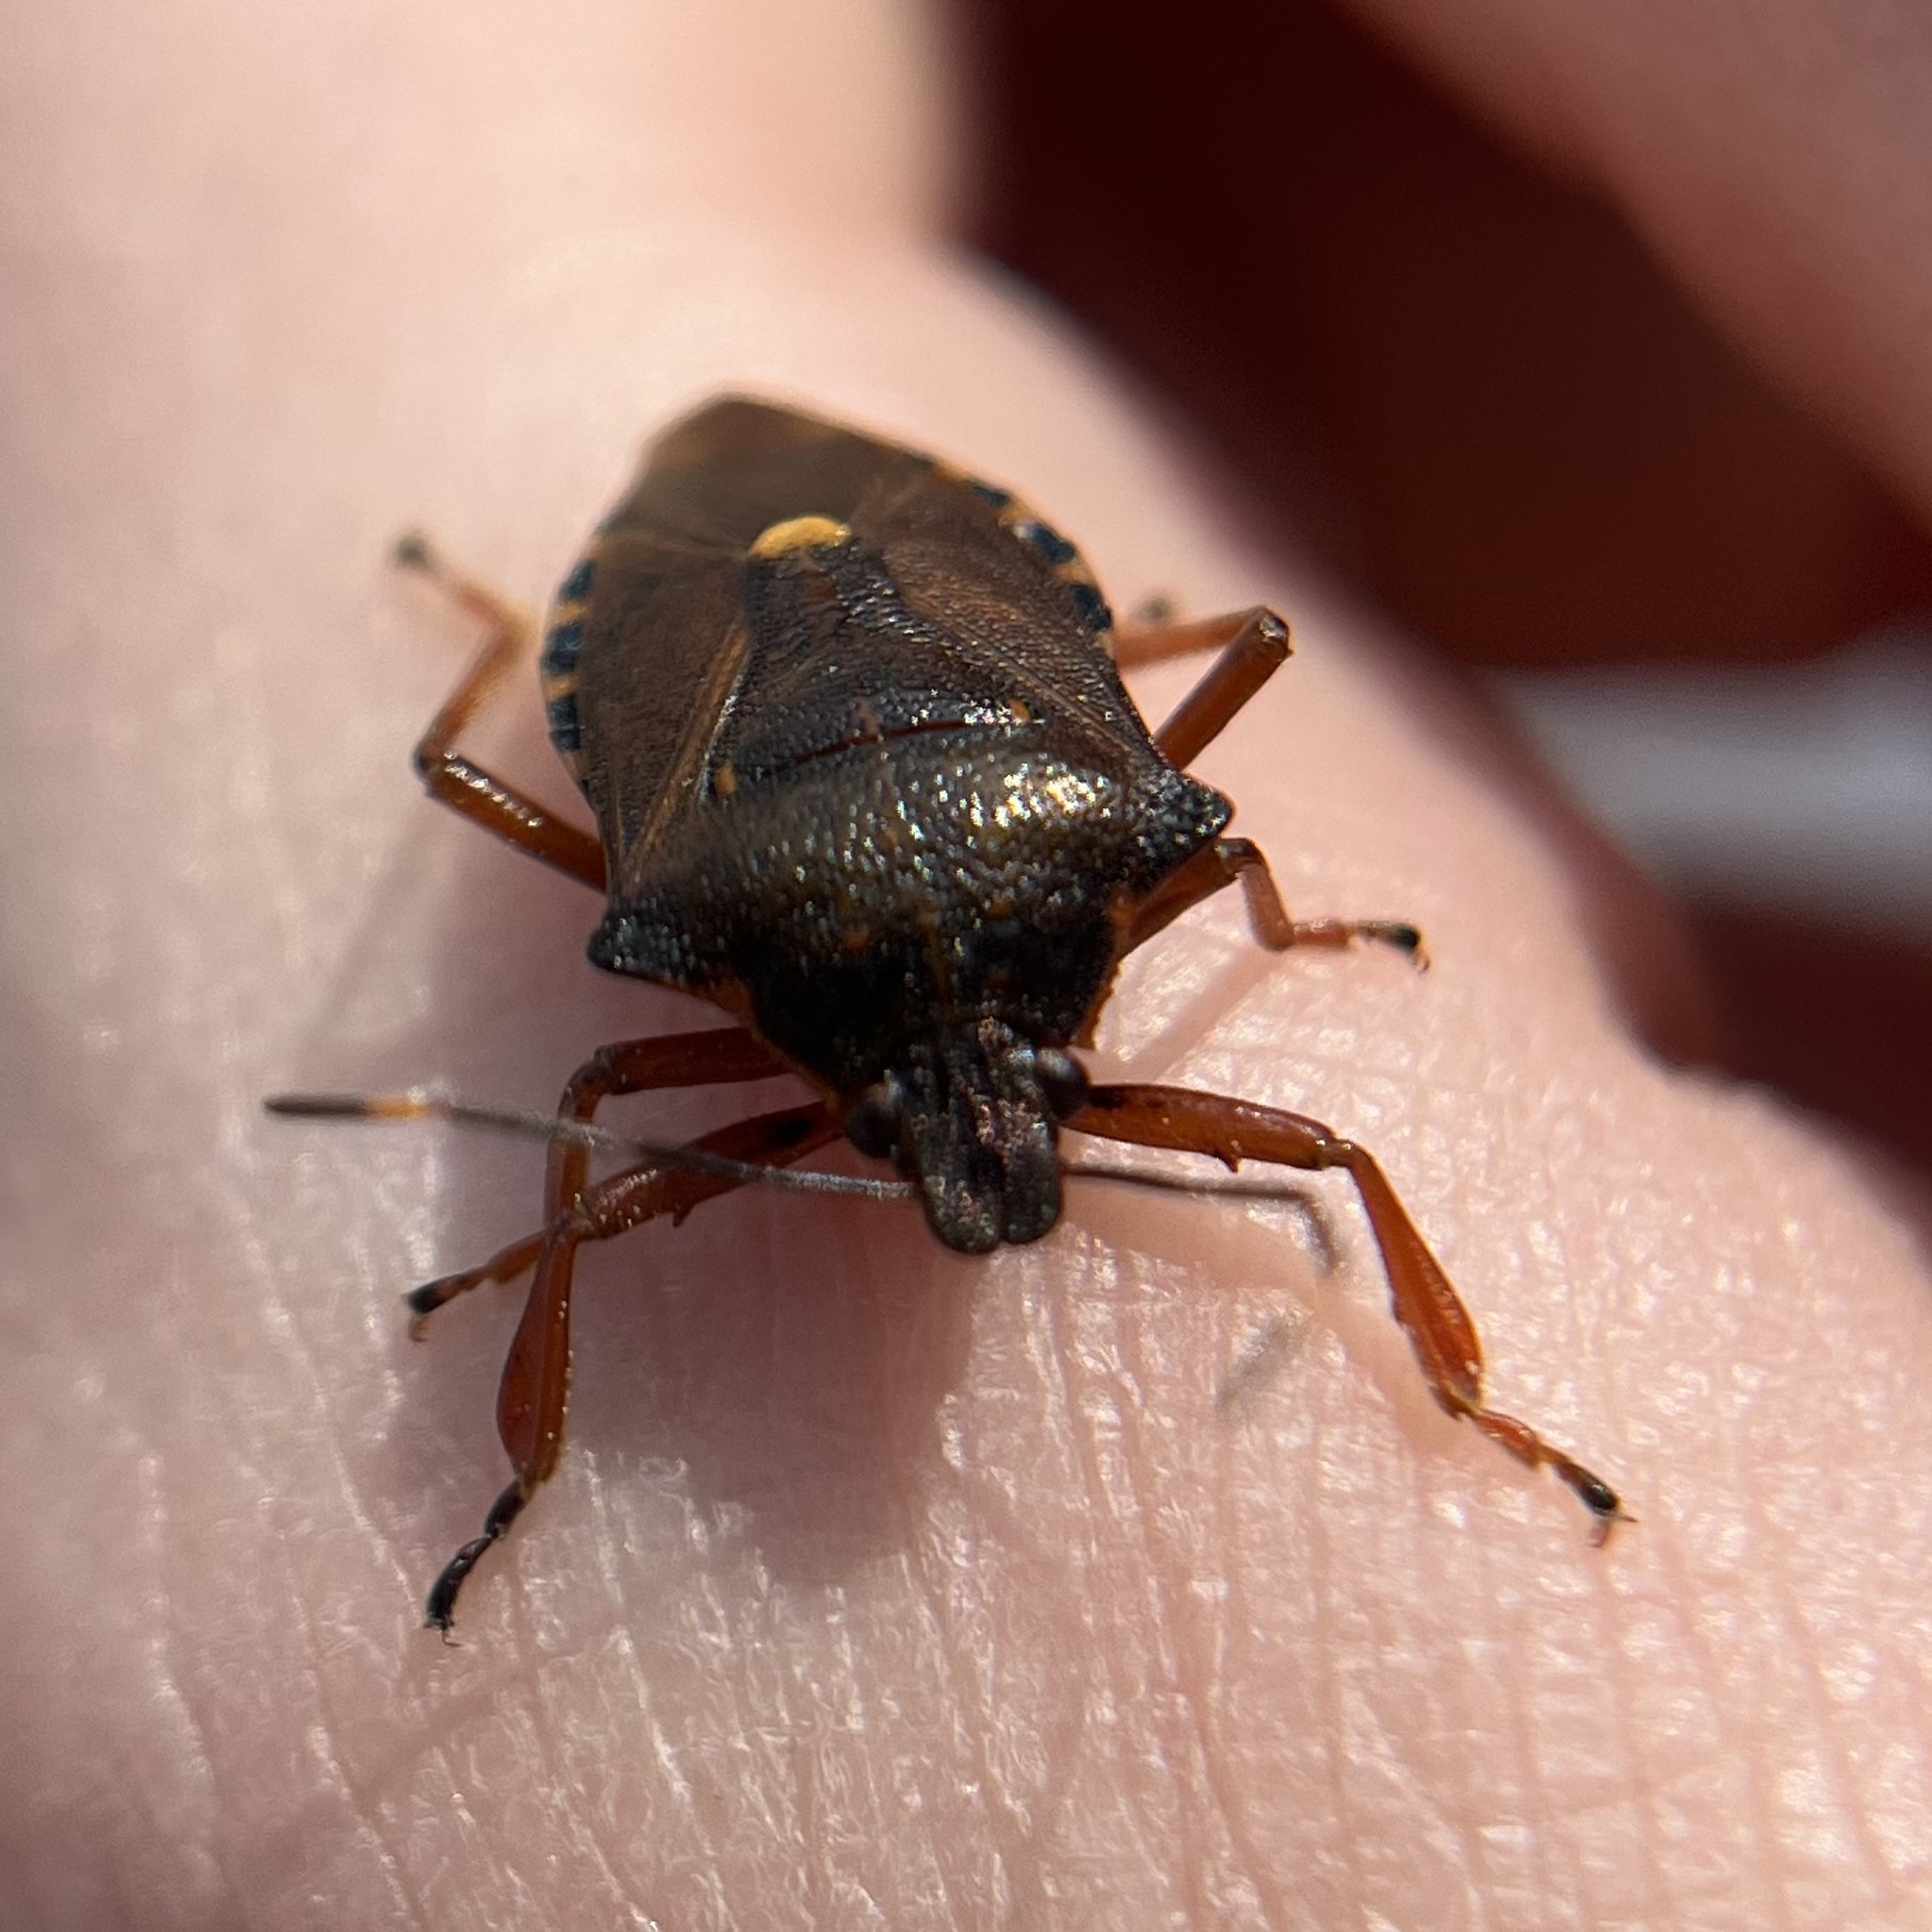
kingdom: Animalia
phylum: Arthropoda
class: Insecta
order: Hemiptera
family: Pentatomidae
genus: Pinthaeus
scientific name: Pinthaeus sanguinipes
